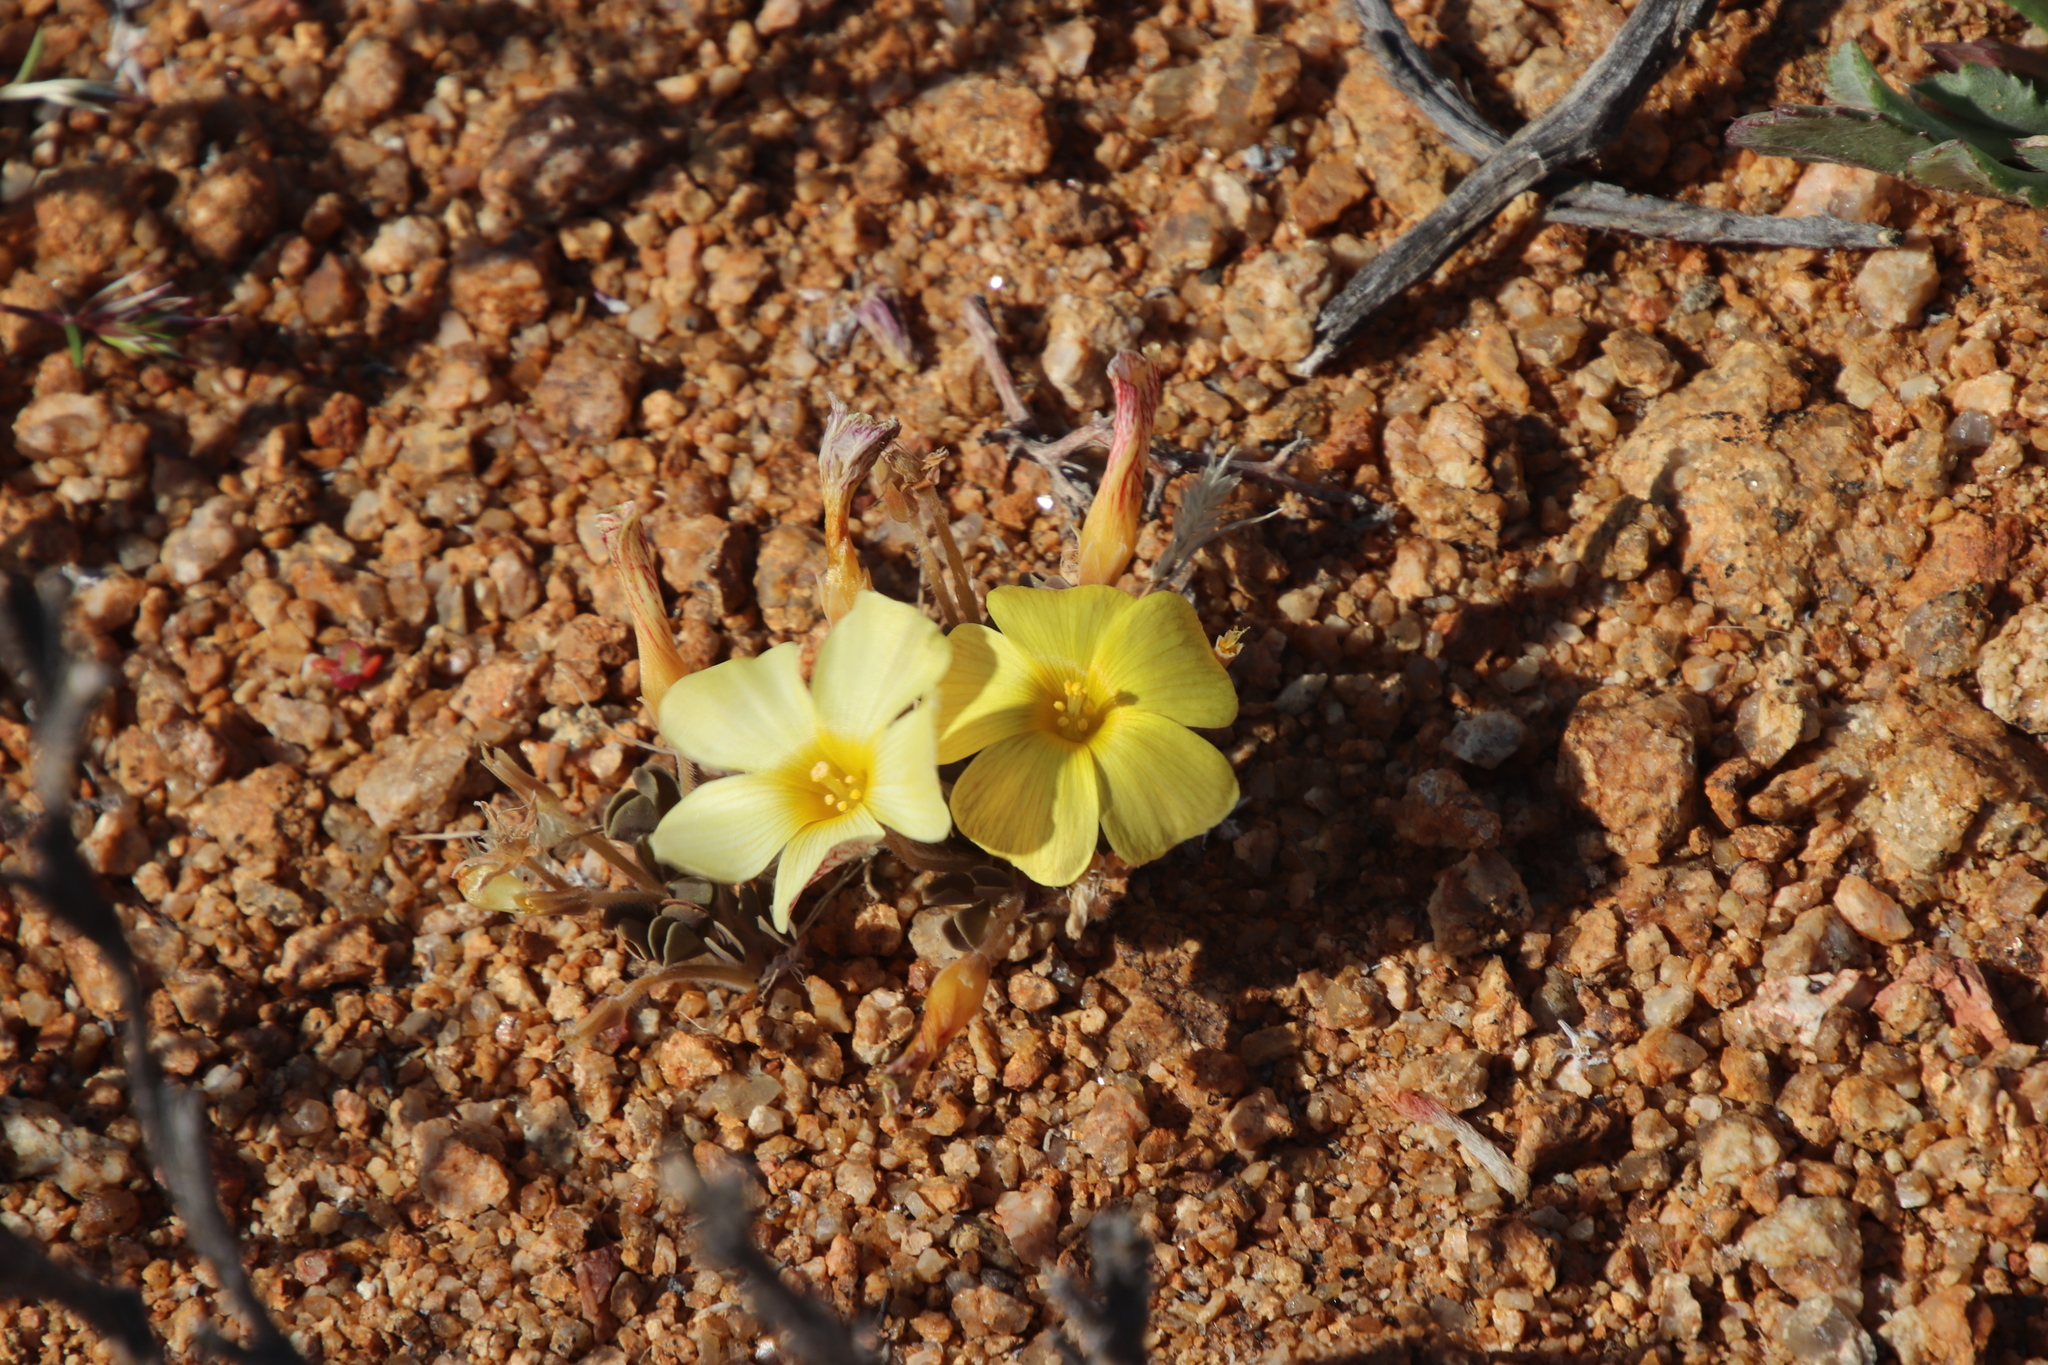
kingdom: Plantae
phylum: Tracheophyta
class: Magnoliopsida
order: Oxalidales
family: Oxalidaceae
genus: Oxalis
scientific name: Oxalis obtusa
